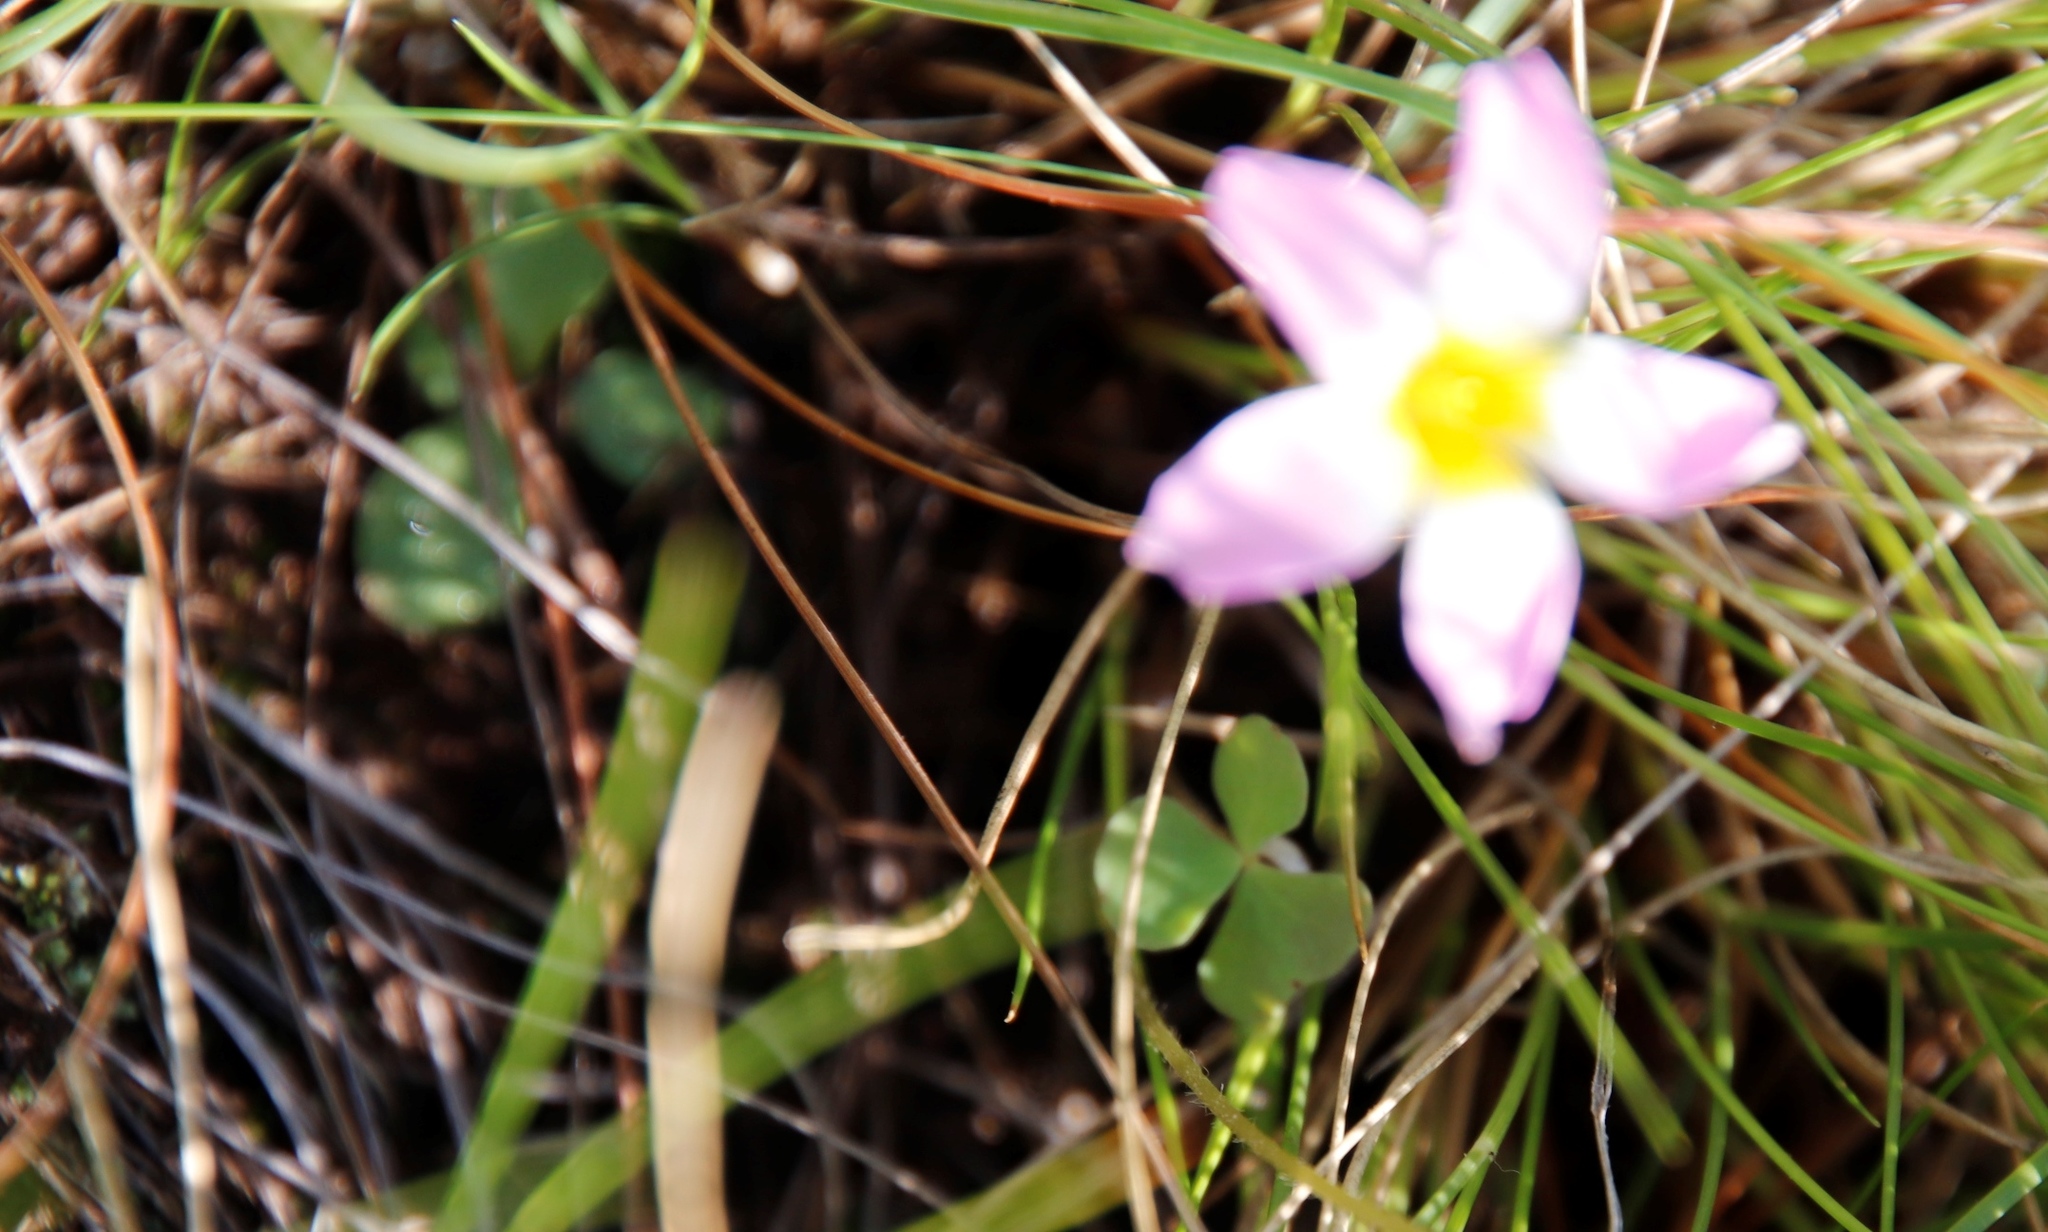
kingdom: Plantae
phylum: Tracheophyta
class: Magnoliopsida
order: Oxalidales
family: Oxalidaceae
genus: Oxalis
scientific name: Oxalis obliquifolia
